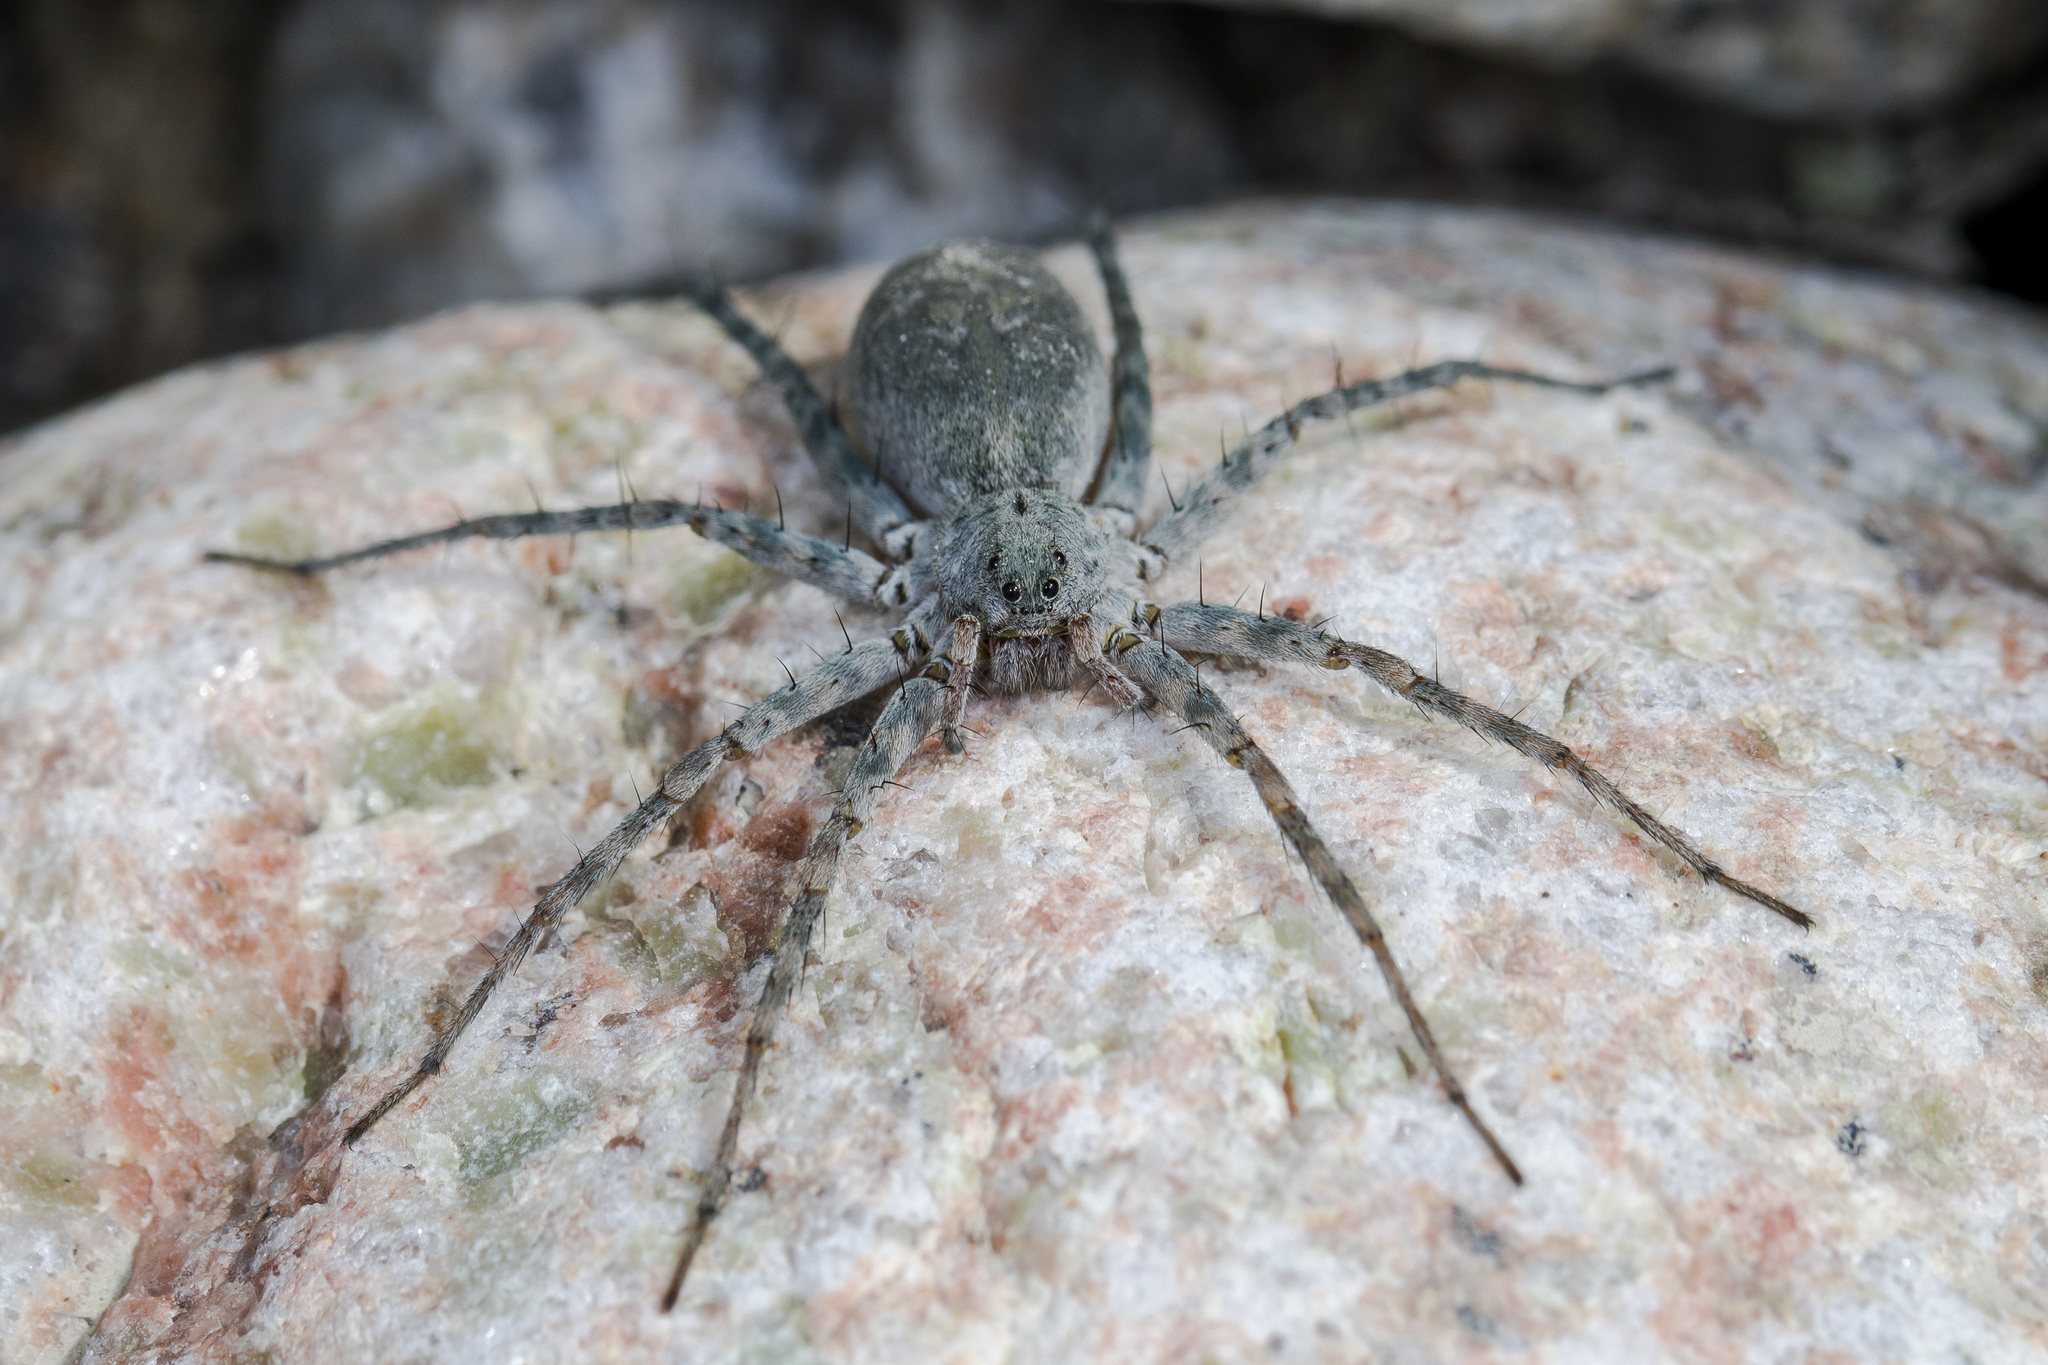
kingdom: Animalia
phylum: Arthropoda
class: Arachnida
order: Araneae
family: Lycosidae
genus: Pardosa
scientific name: Pardosa falcata
